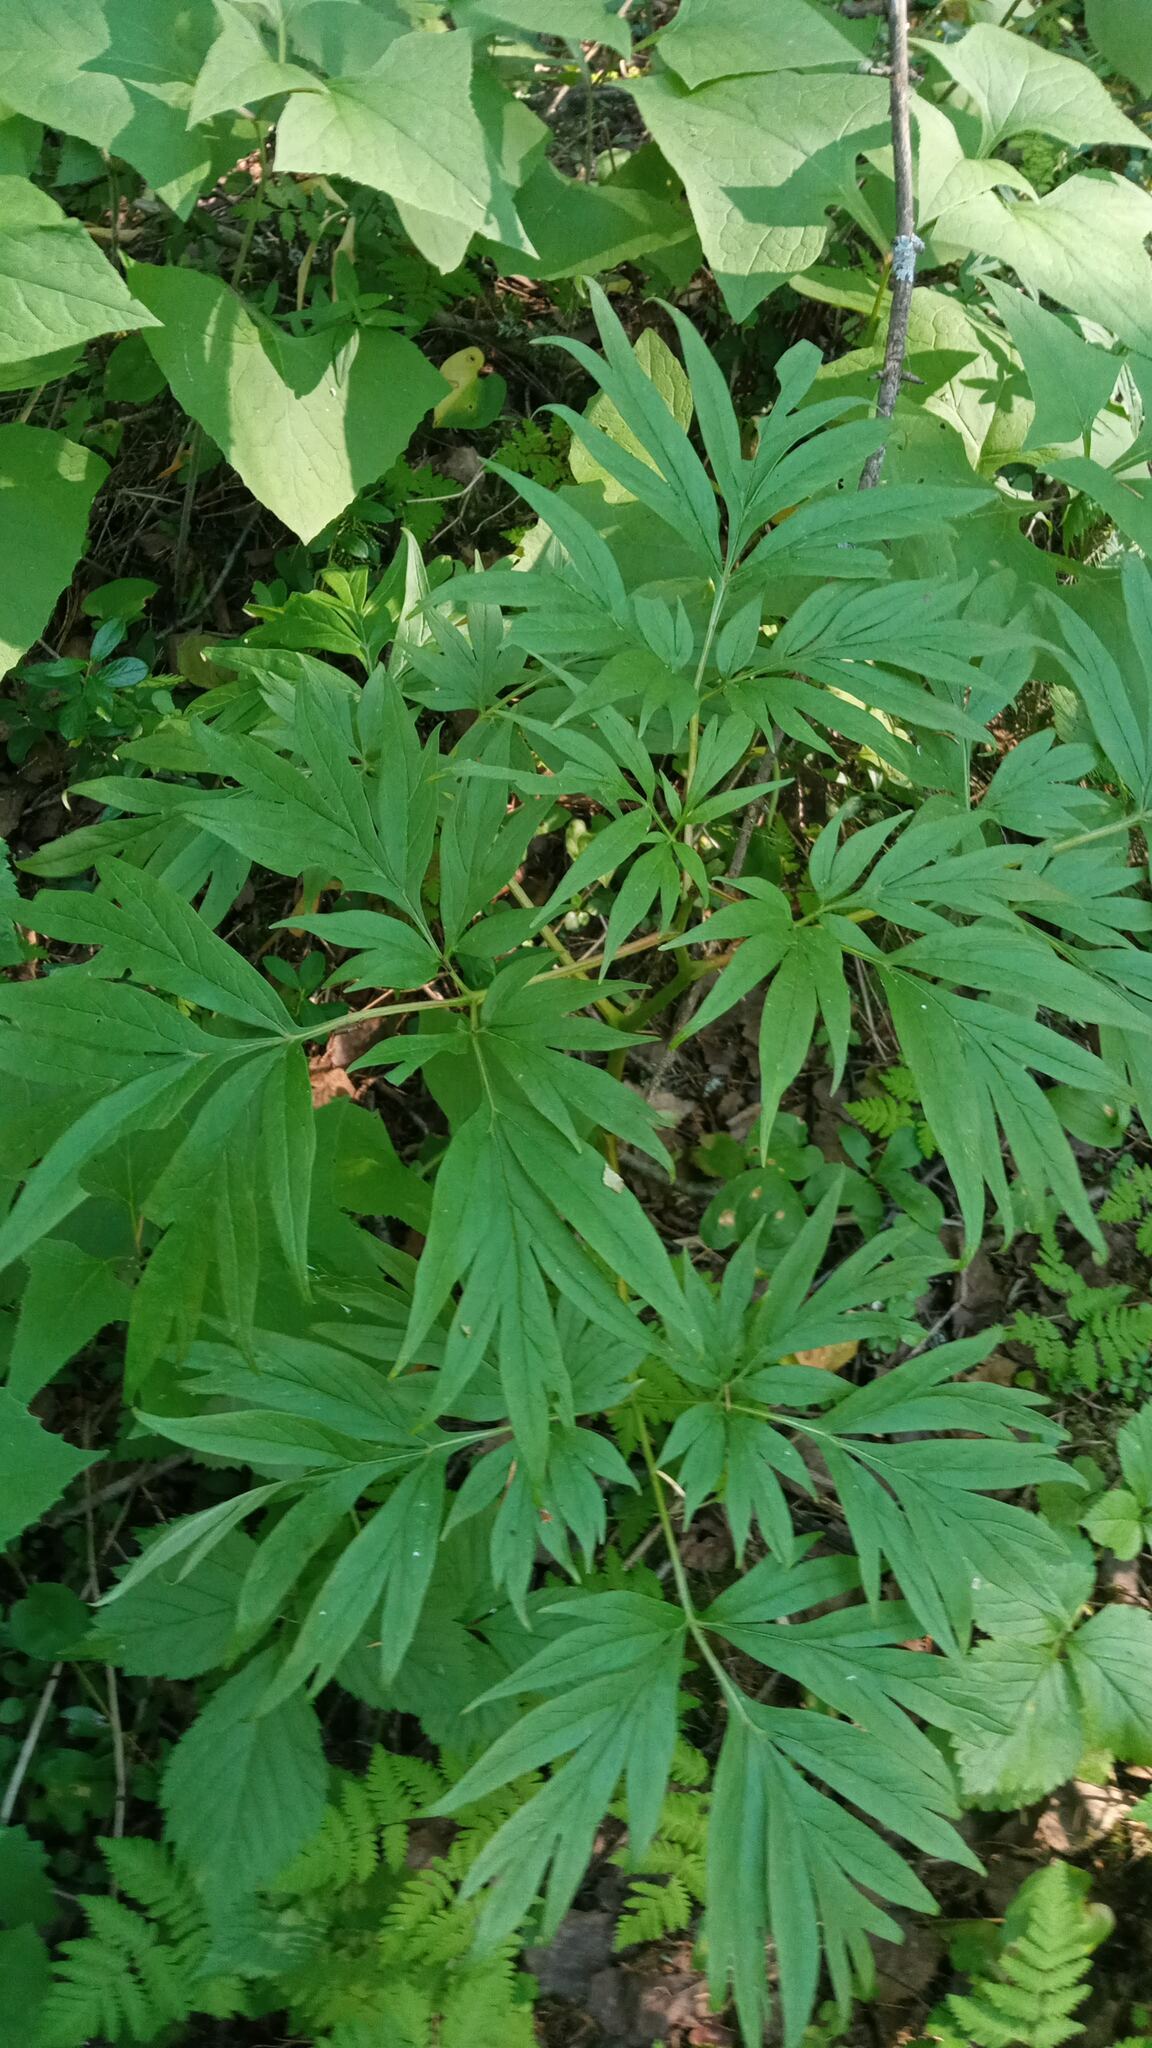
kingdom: Plantae
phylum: Tracheophyta
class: Magnoliopsida
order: Saxifragales
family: Paeoniaceae
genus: Paeonia
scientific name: Paeonia anomala
